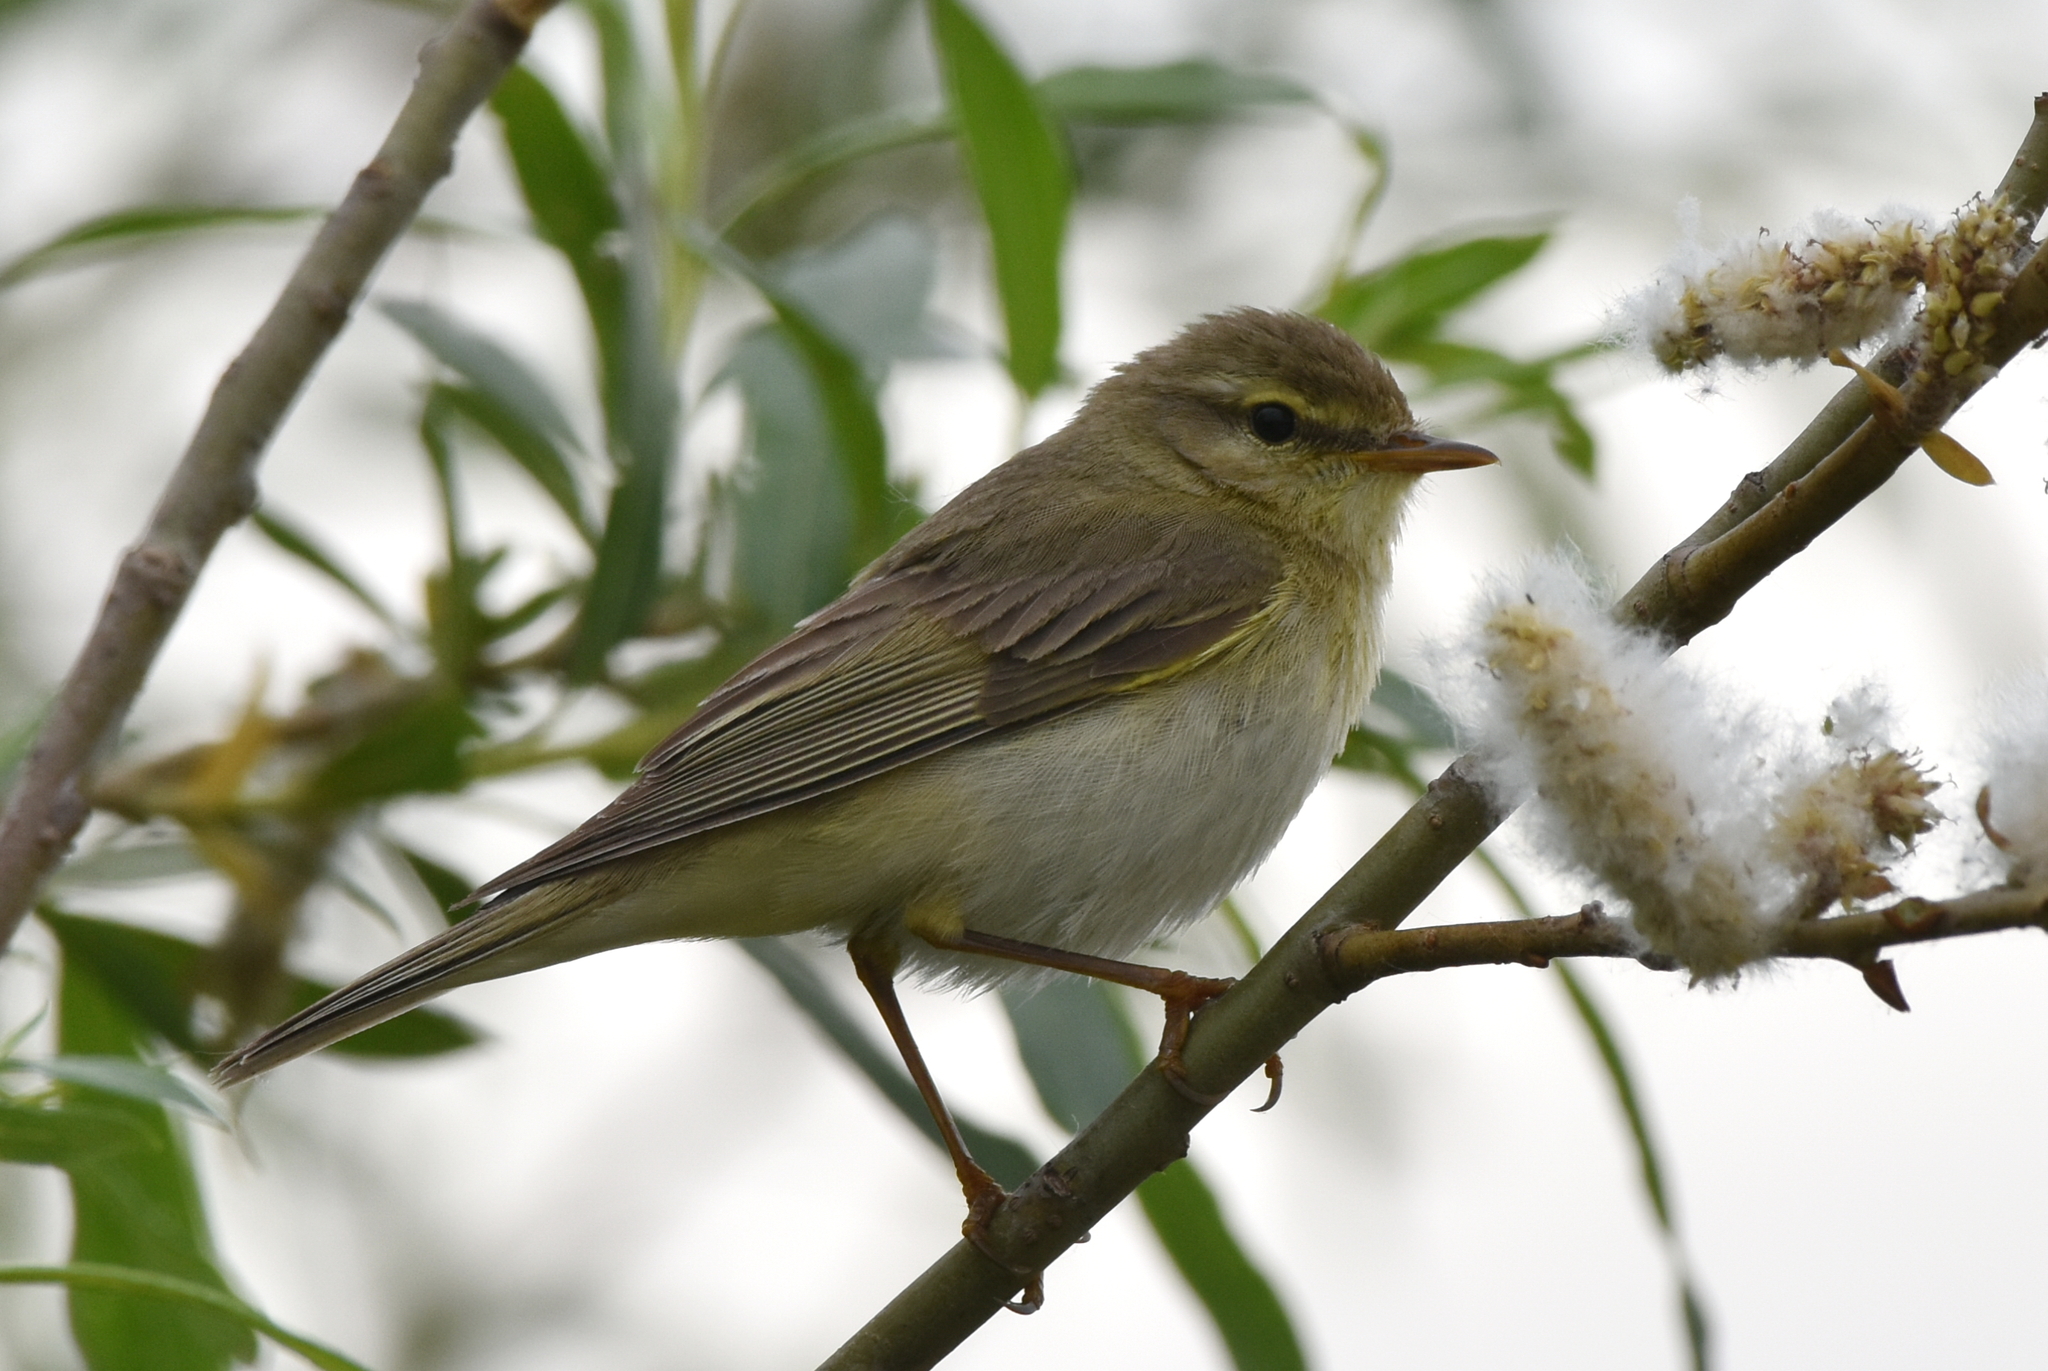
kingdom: Animalia
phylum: Chordata
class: Aves
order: Passeriformes
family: Phylloscopidae
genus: Phylloscopus
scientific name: Phylloscopus sibillatrix
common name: Wood warbler
